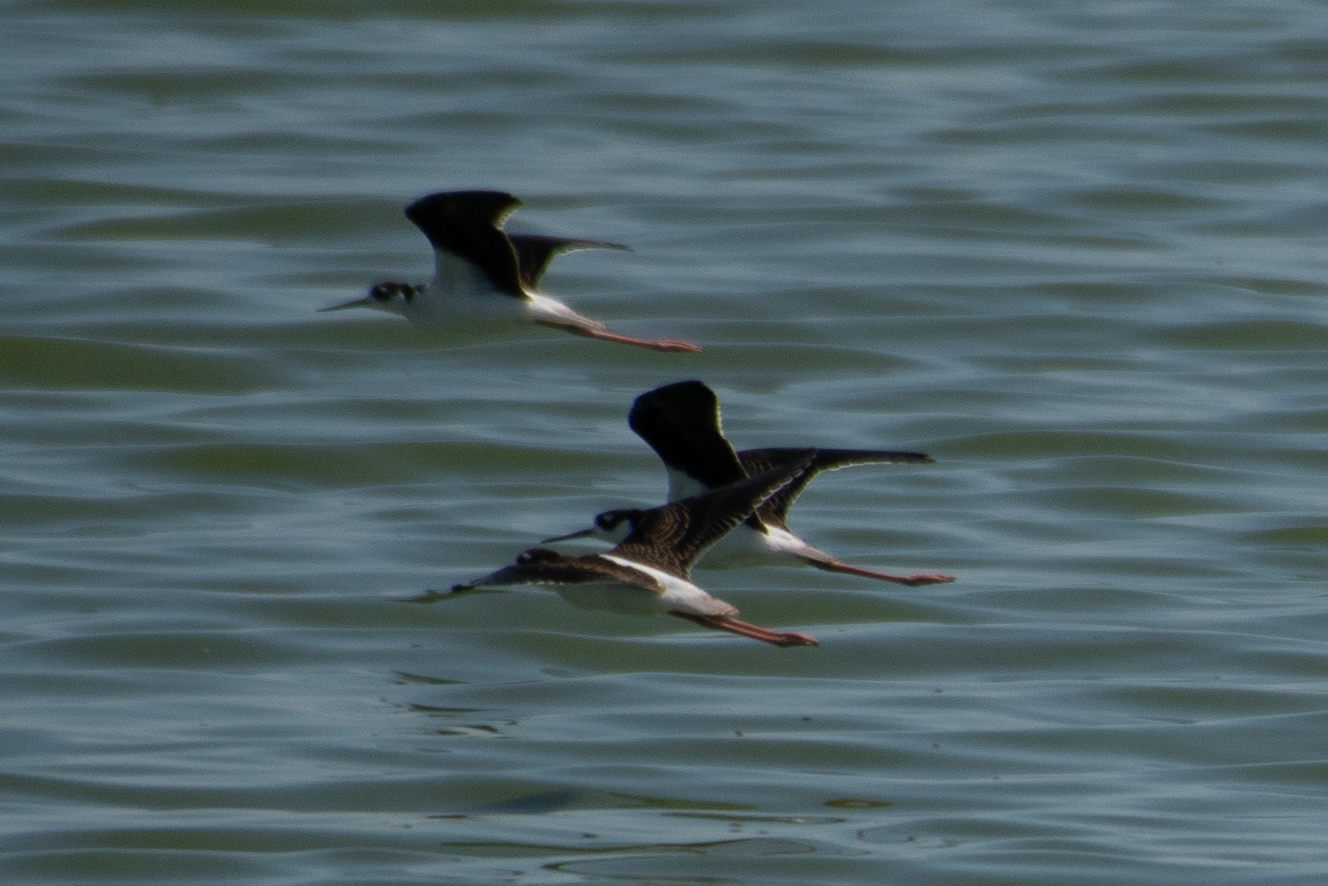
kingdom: Animalia
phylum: Chordata
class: Aves
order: Charadriiformes
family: Recurvirostridae
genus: Himantopus
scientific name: Himantopus mexicanus
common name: Black-necked stilt
